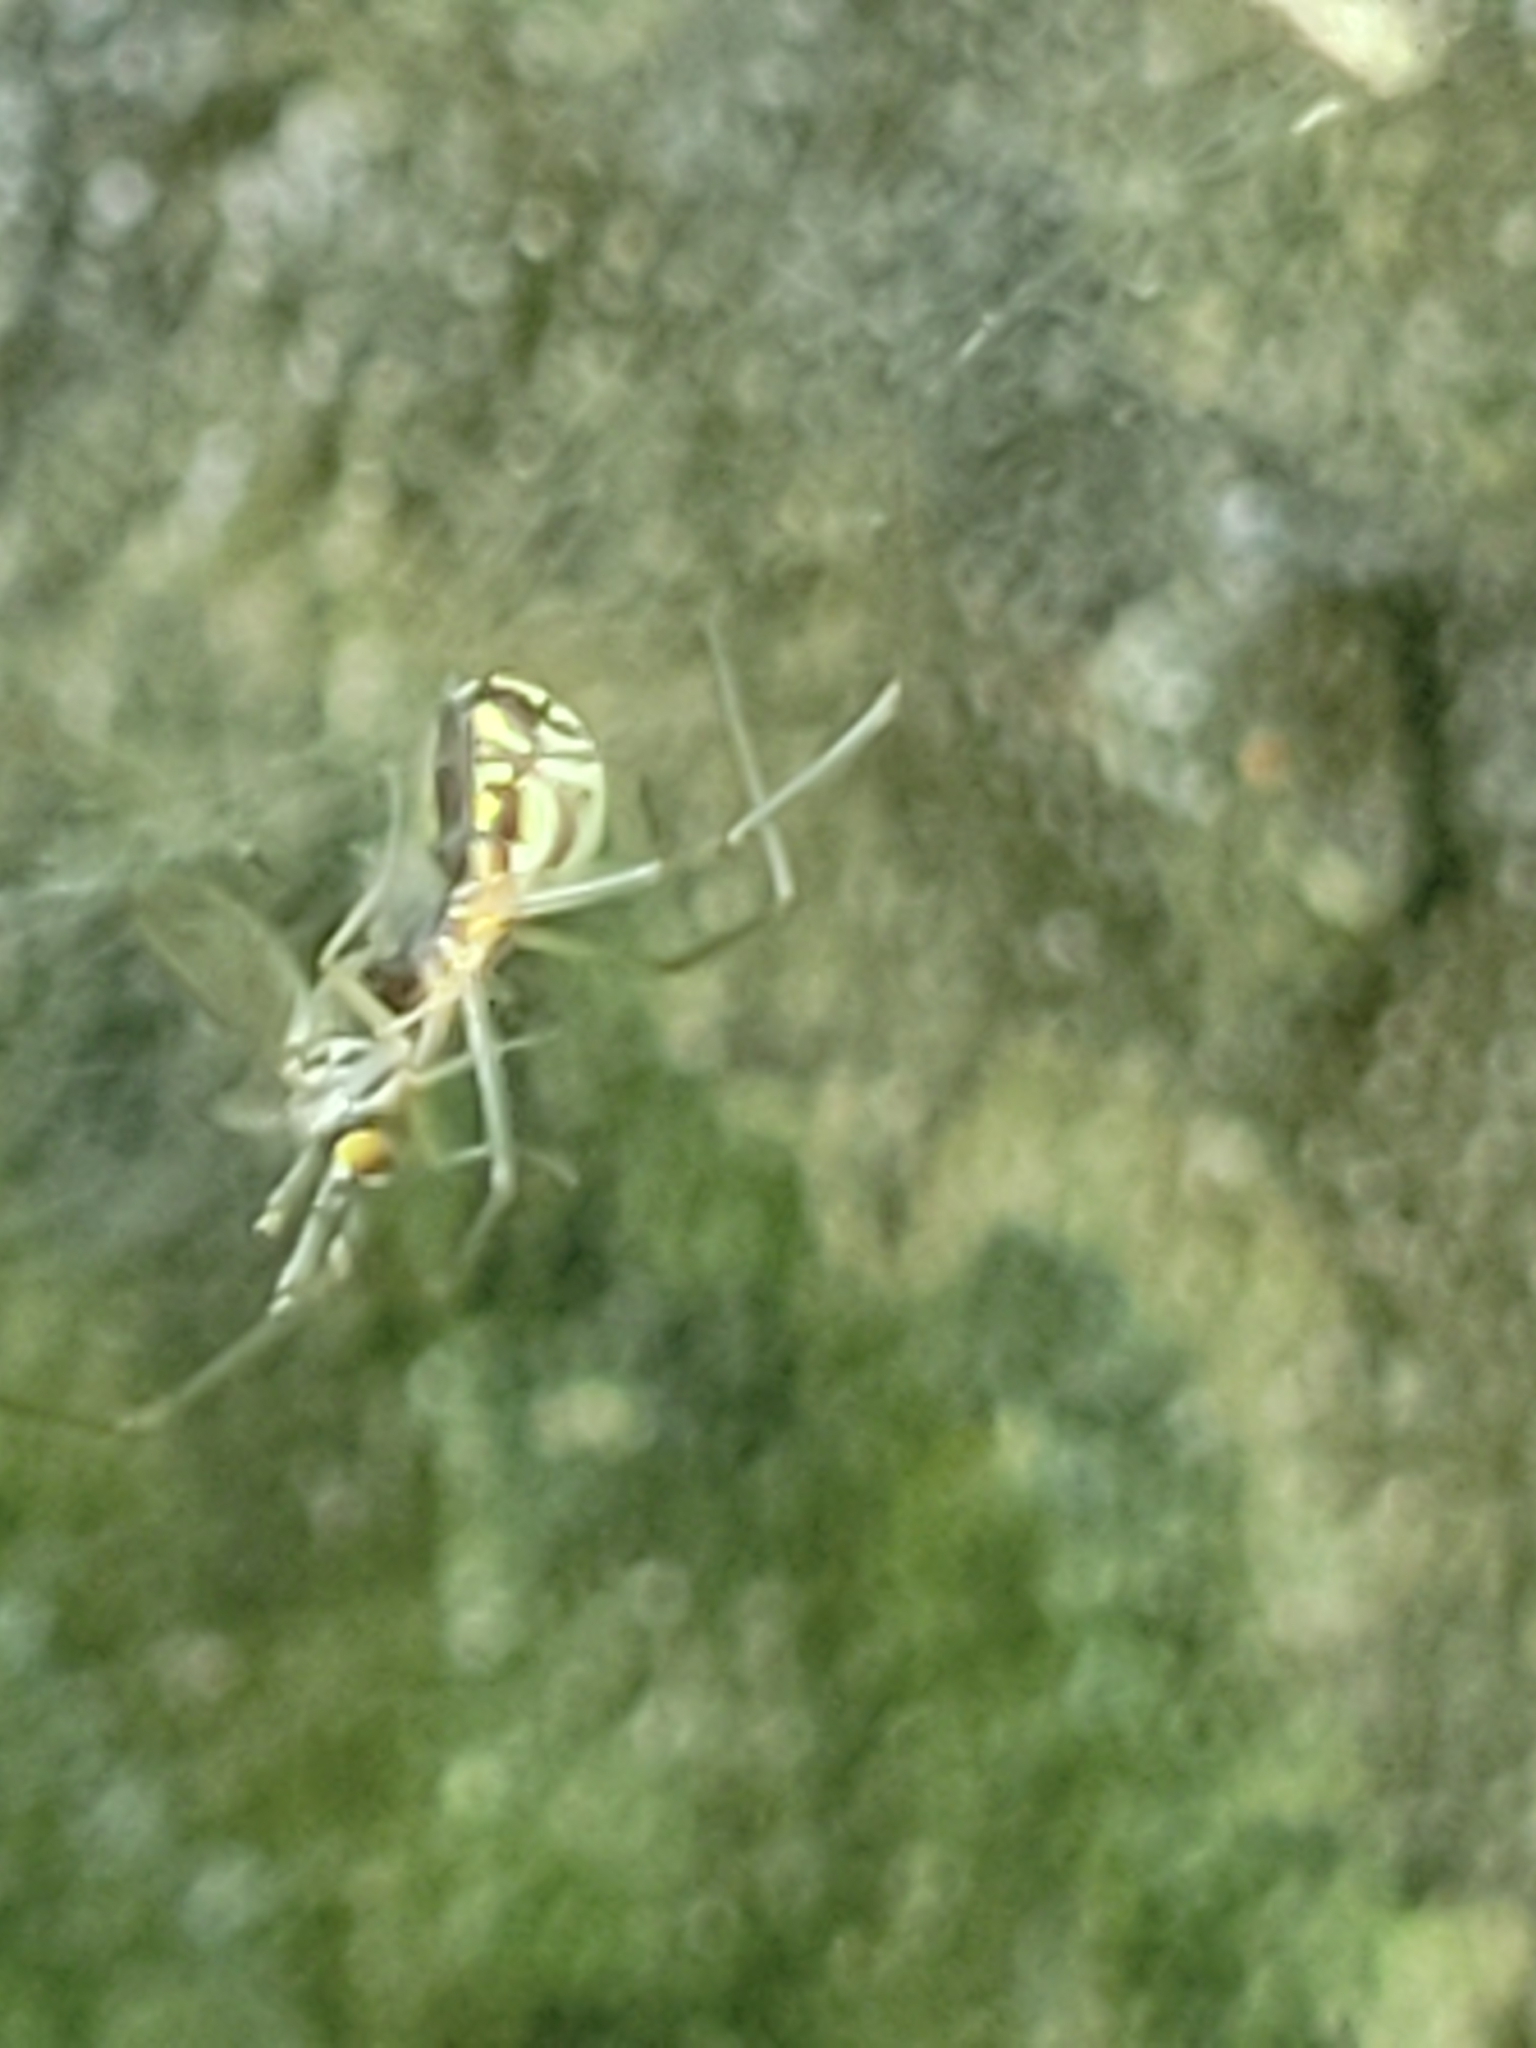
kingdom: Animalia
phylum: Arthropoda
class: Arachnida
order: Araneae
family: Linyphiidae
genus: Neriene
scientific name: Neriene radiata
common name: Filmy dome spider
